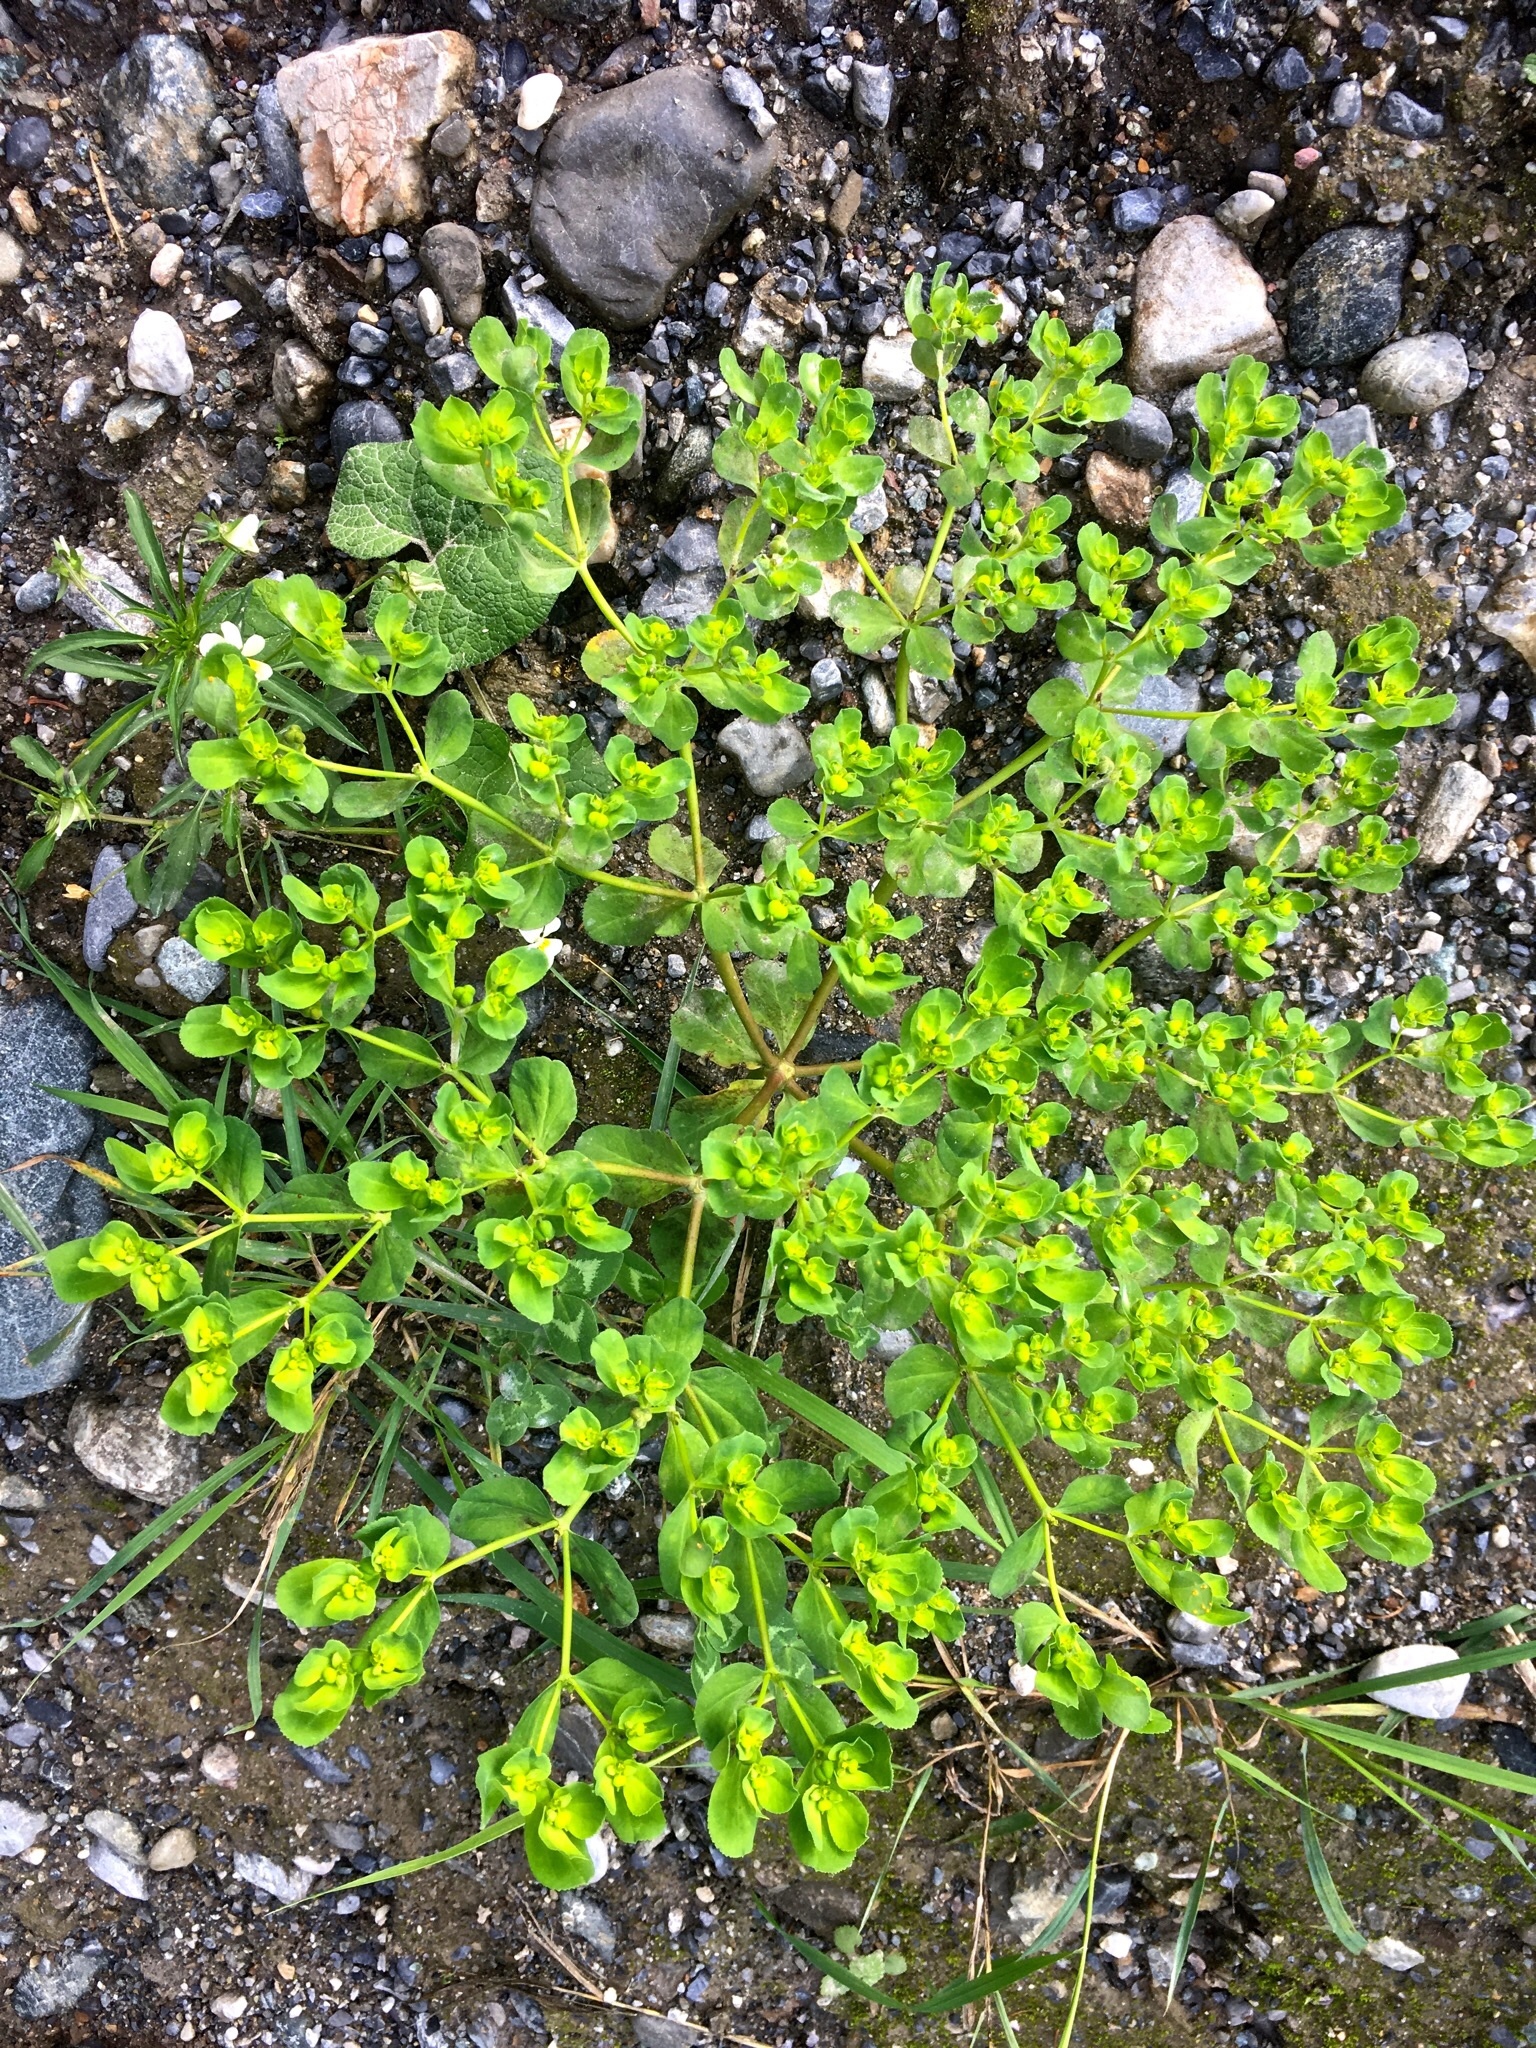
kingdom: Plantae
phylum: Tracheophyta
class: Magnoliopsida
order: Malpighiales
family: Euphorbiaceae
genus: Euphorbia
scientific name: Euphorbia helioscopia
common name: Sun spurge
